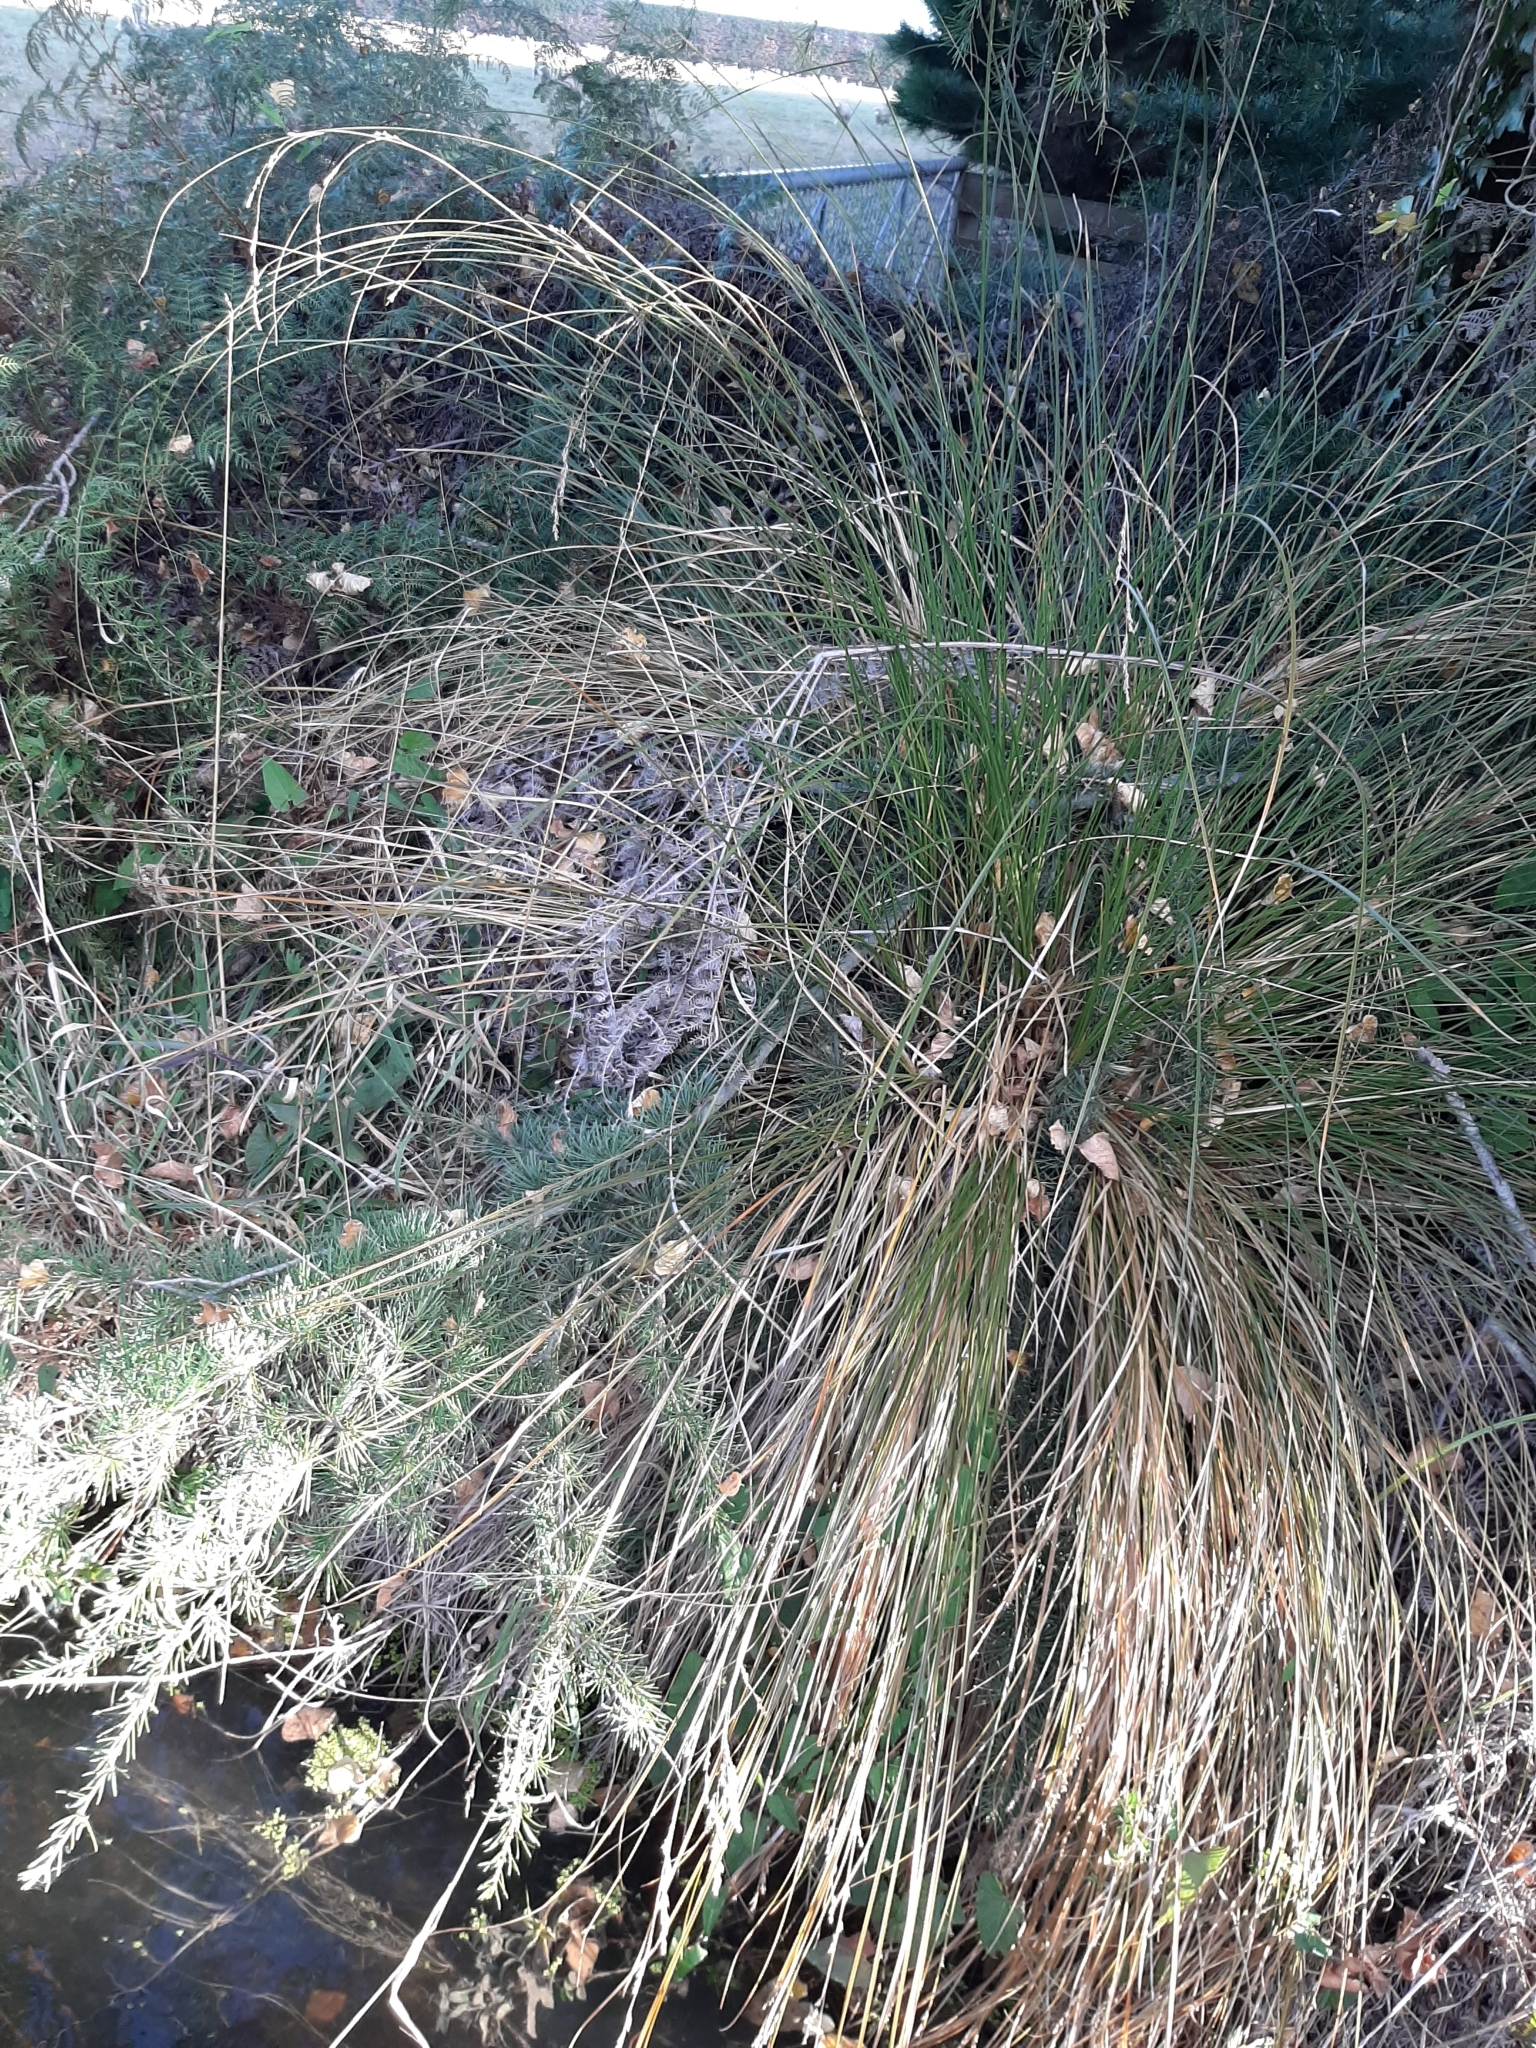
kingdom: Plantae
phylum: Tracheophyta
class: Liliopsida
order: Poales
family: Cyperaceae
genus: Carex
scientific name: Carex secta
